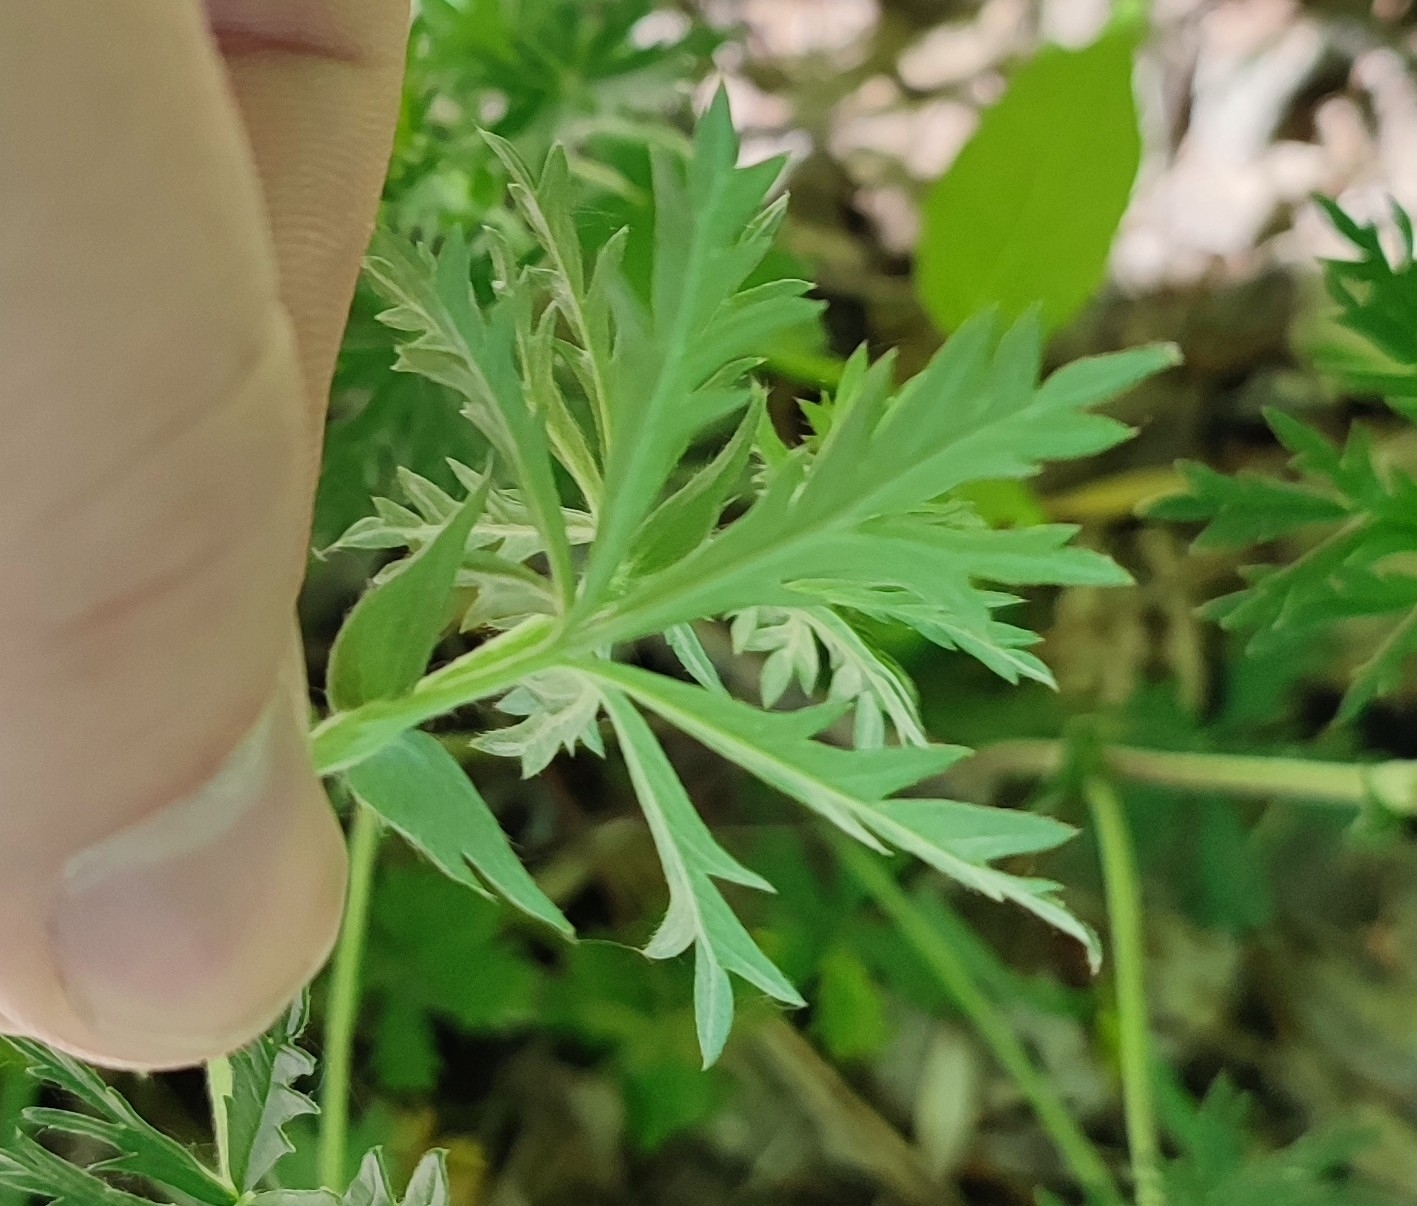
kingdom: Plantae
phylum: Tracheophyta
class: Magnoliopsida
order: Rosales
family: Rosaceae
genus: Potentilla
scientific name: Potentilla argentea
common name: Hoary cinquefoil
